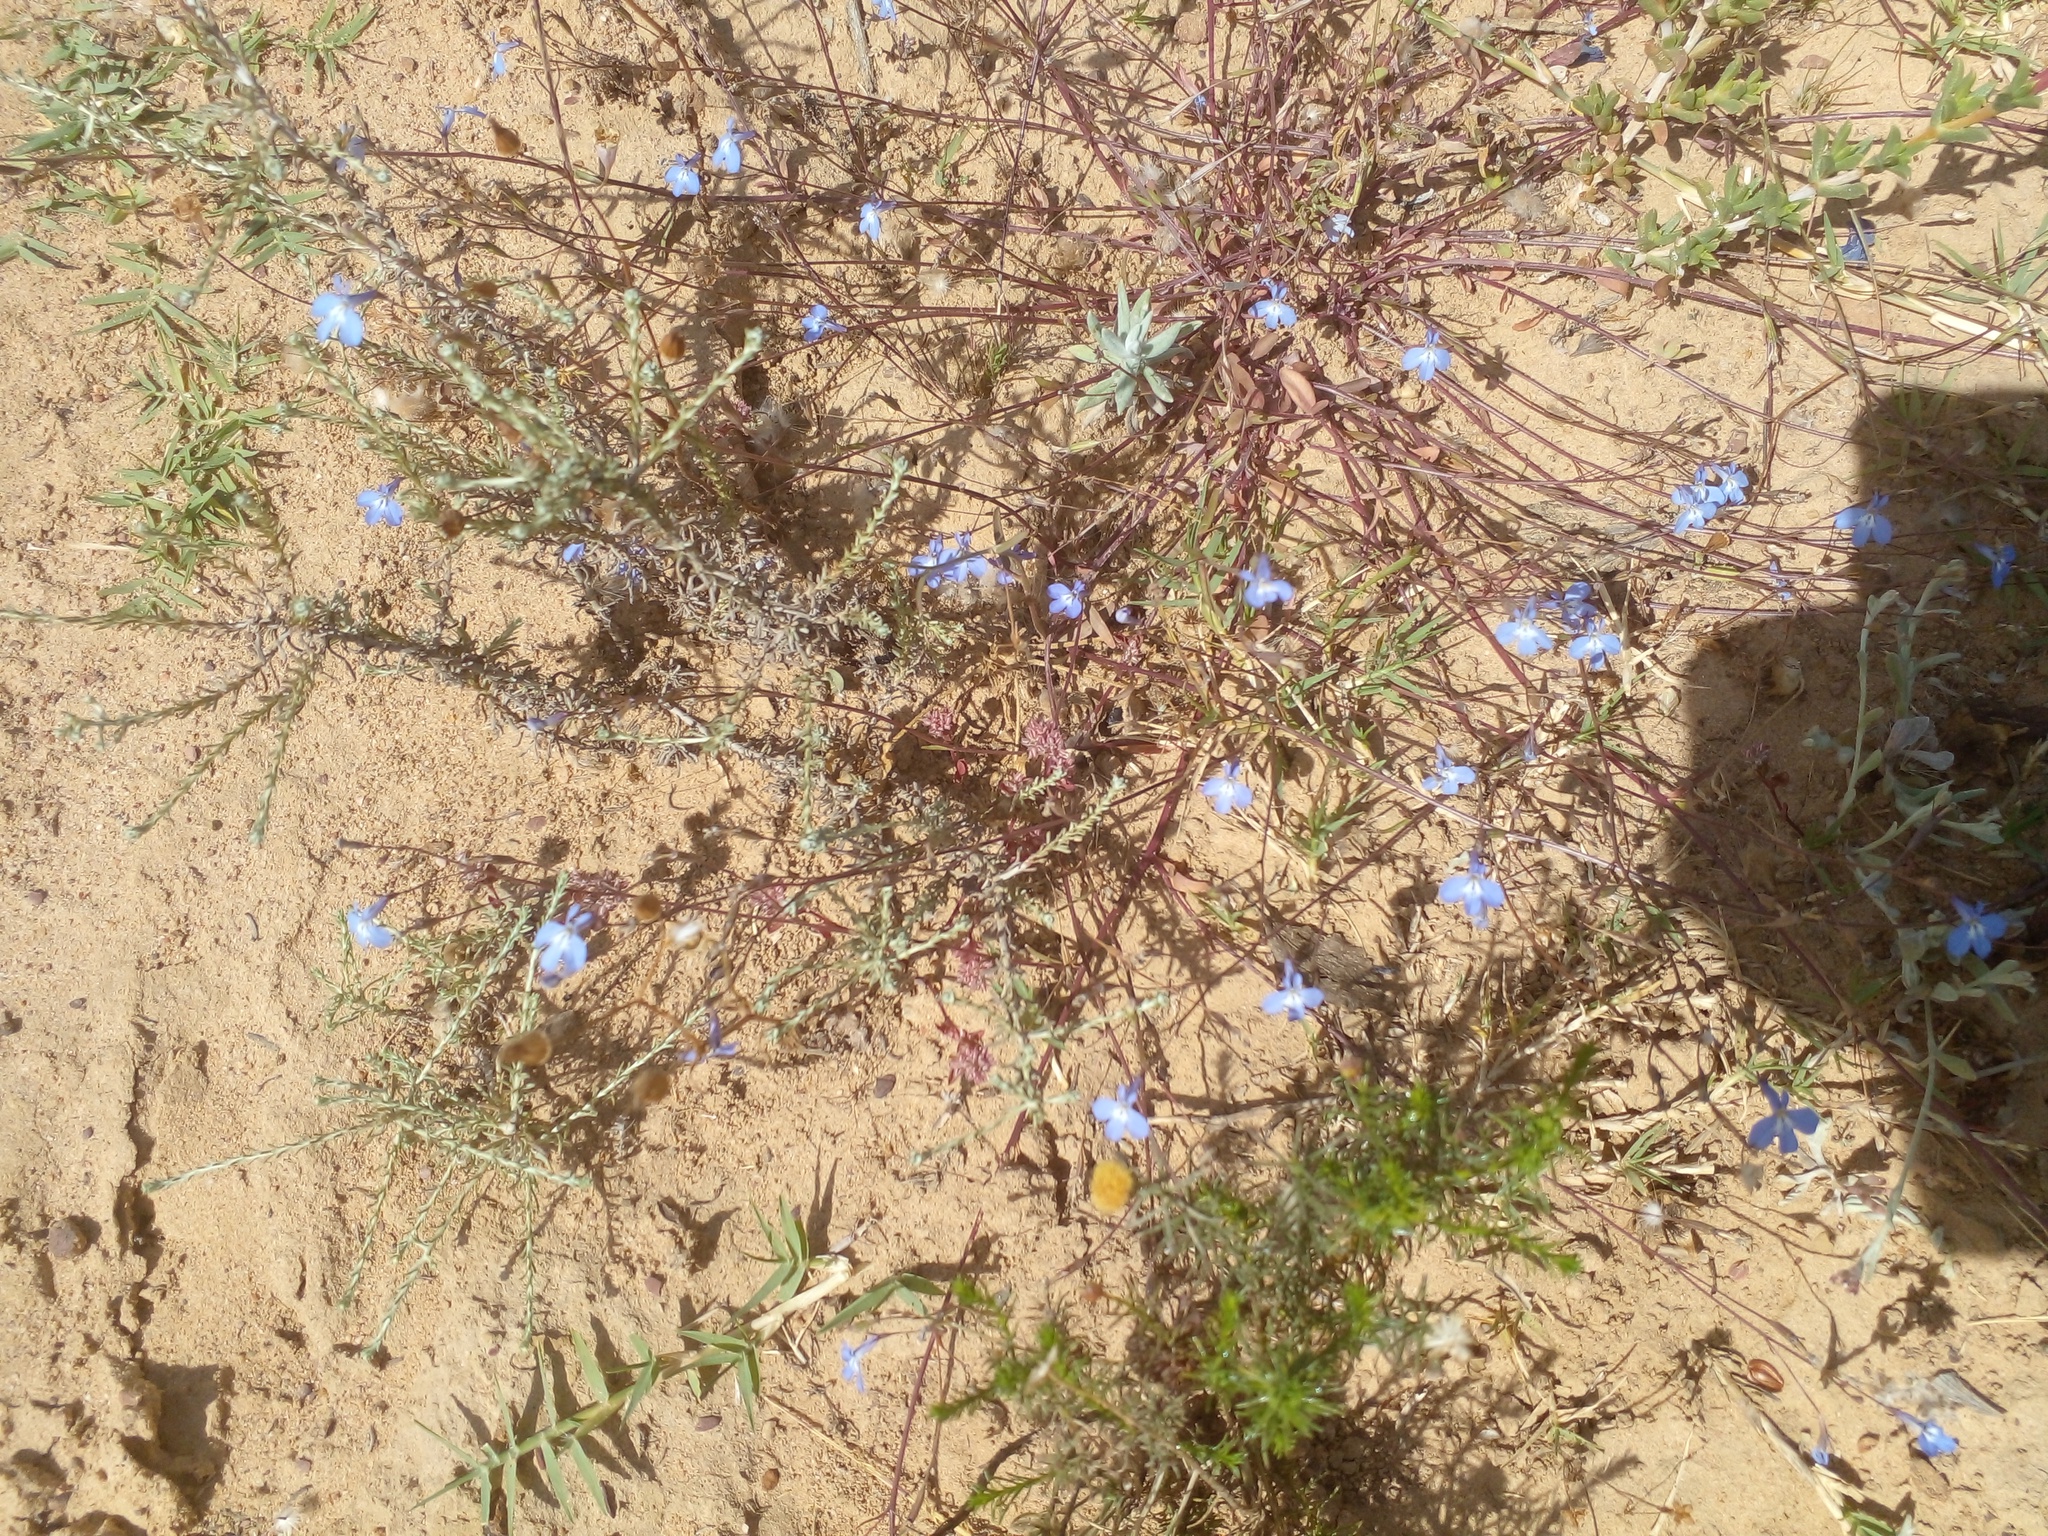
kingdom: Plantae
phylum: Tracheophyta
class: Magnoliopsida
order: Asterales
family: Campanulaceae
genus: Lobelia
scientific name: Lobelia erinus
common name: Edging lobelia
